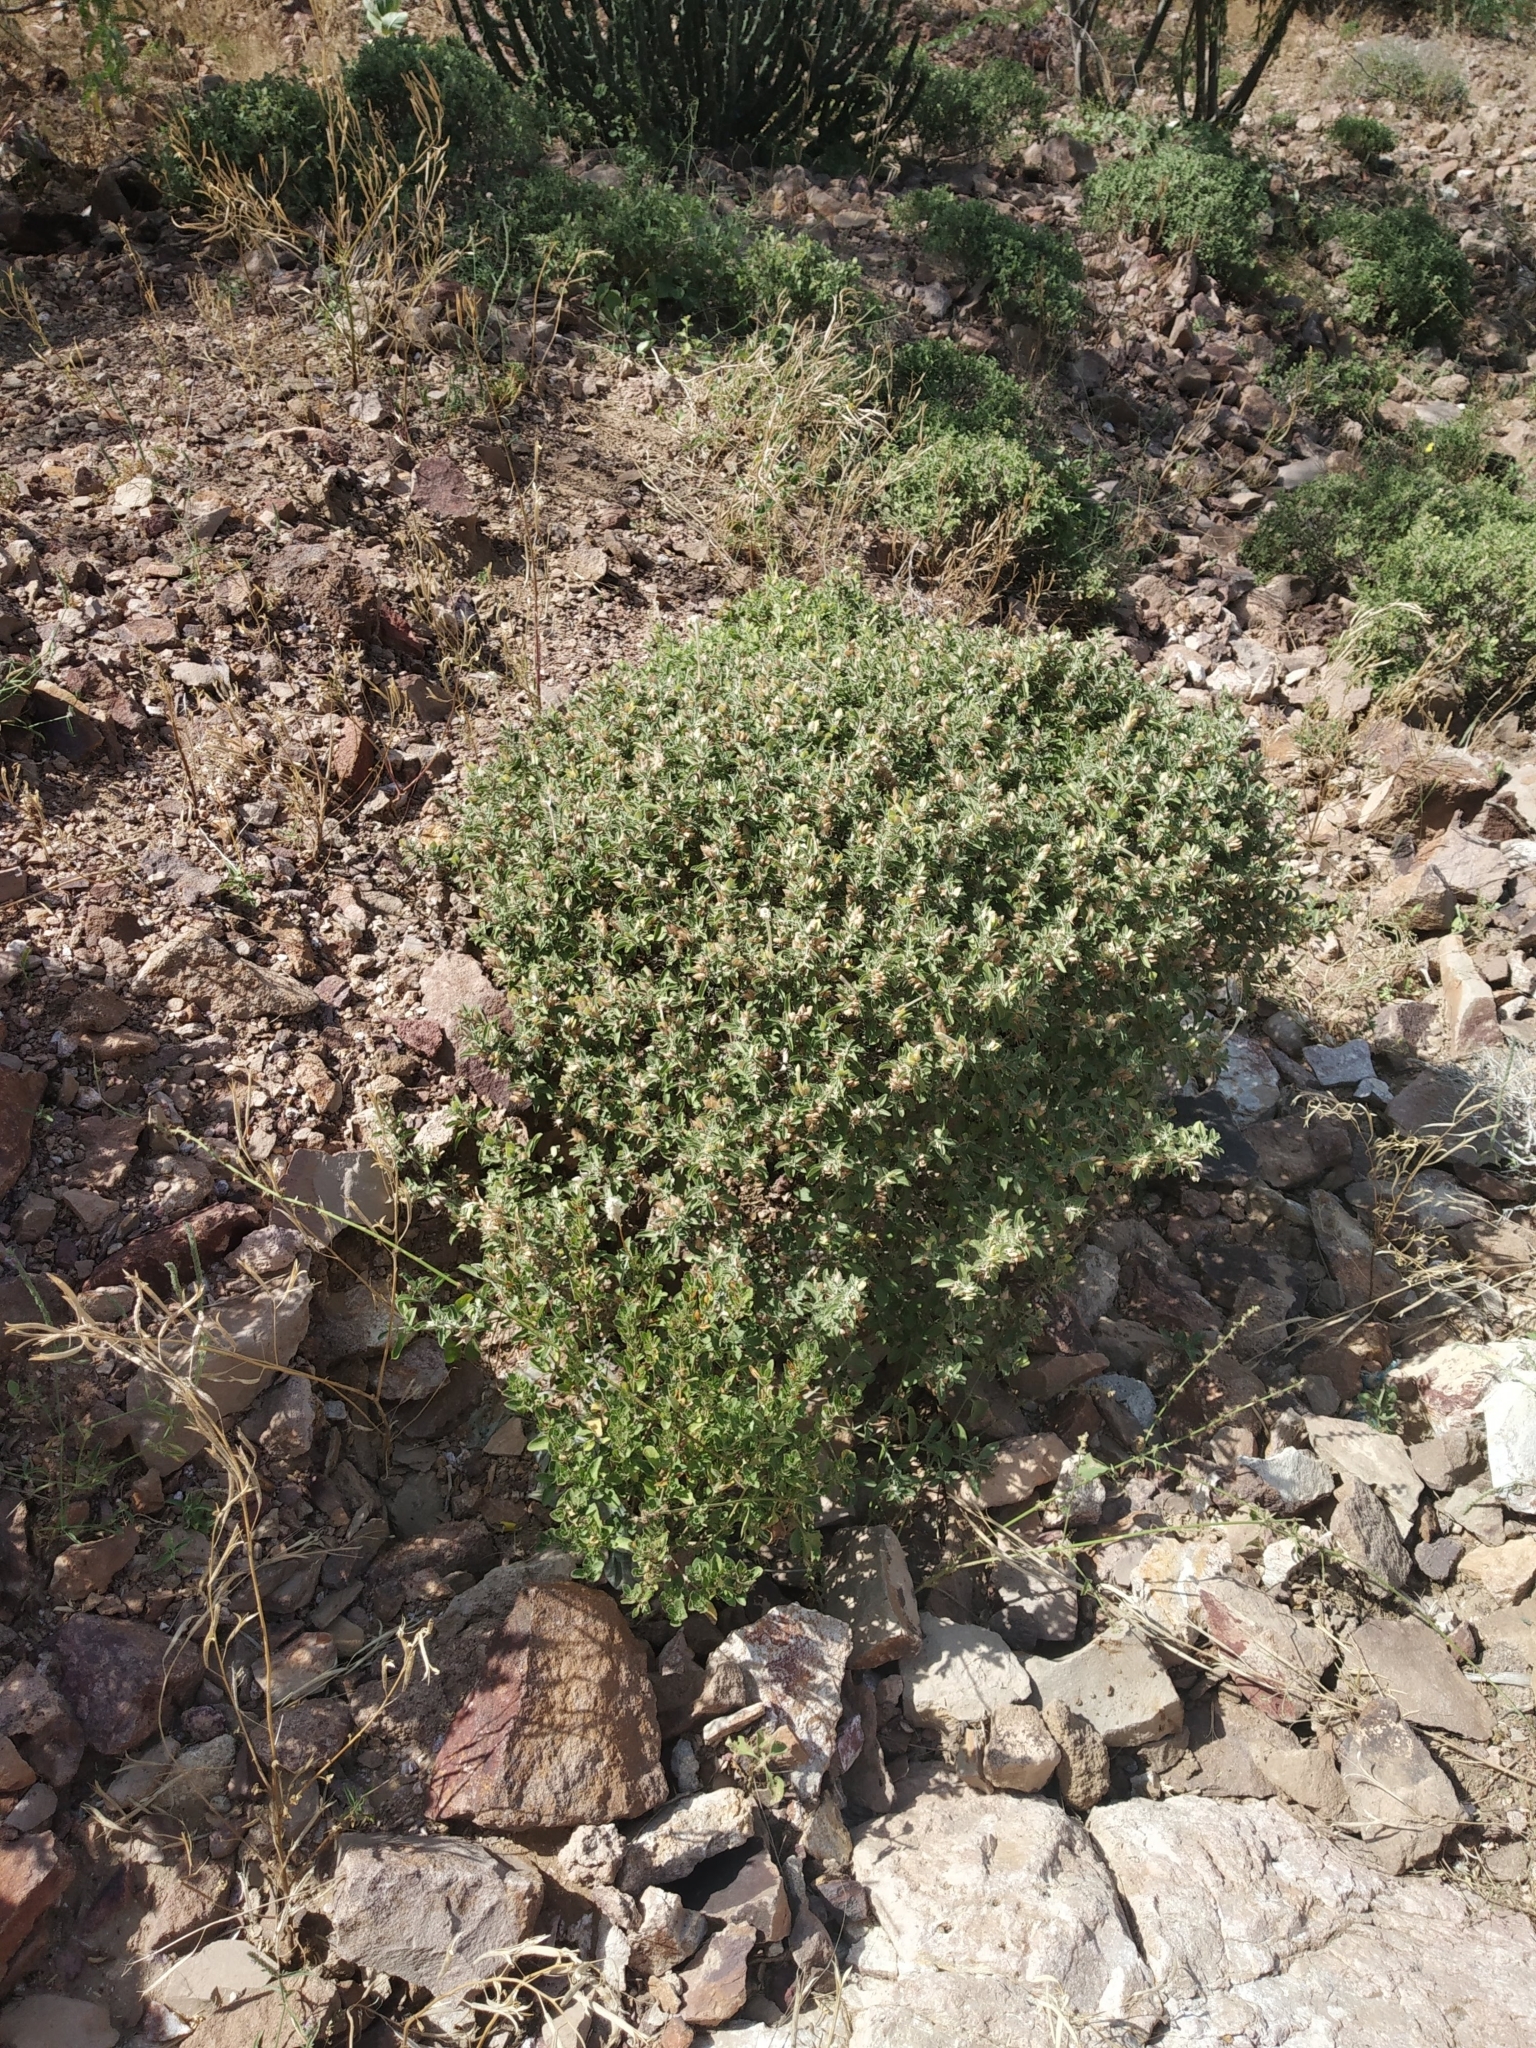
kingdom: Plantae
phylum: Tracheophyta
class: Magnoliopsida
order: Lamiales
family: Acanthaceae
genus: Barleria
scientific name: Barleria acanthoides
